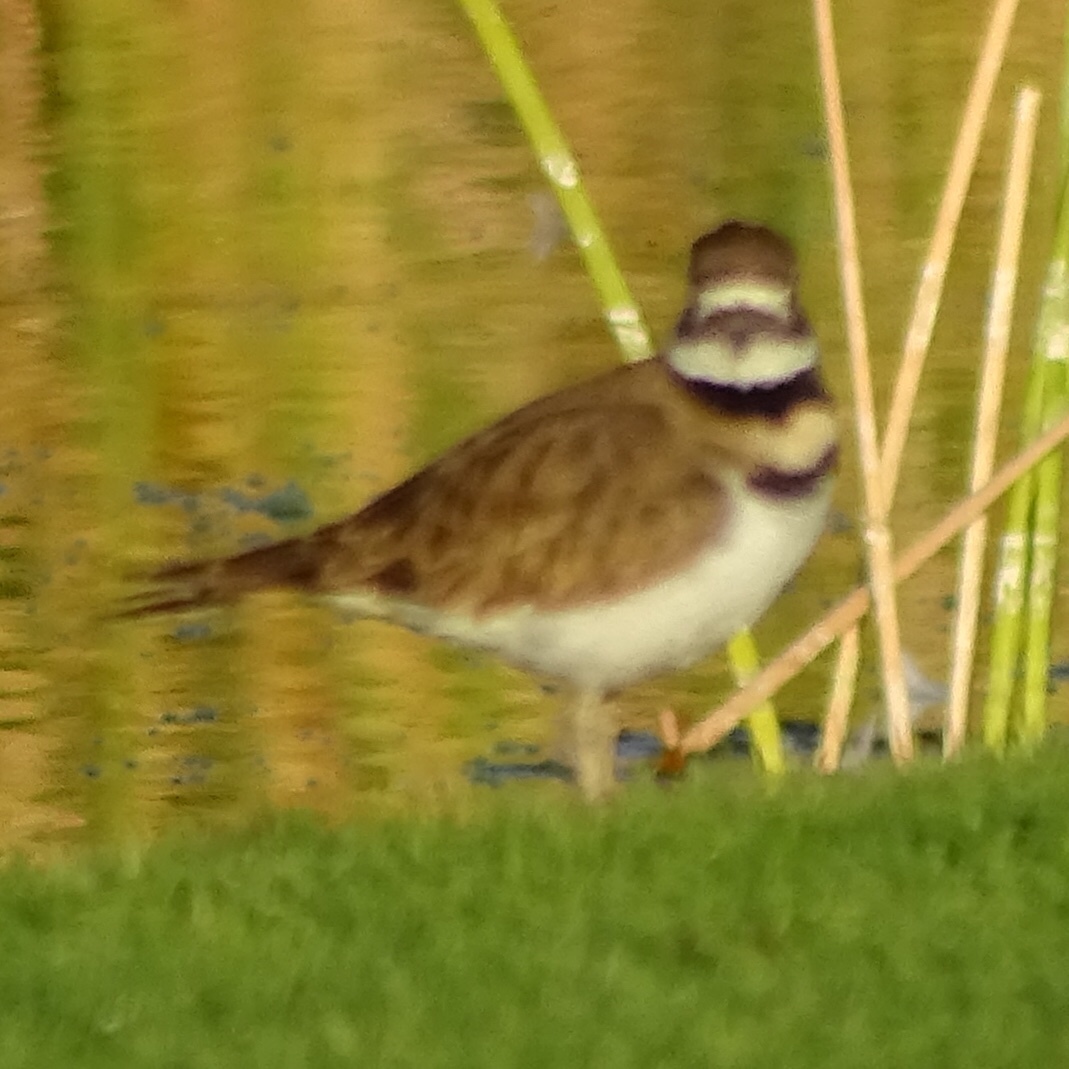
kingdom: Animalia
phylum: Chordata
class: Aves
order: Charadriiformes
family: Charadriidae
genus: Charadrius
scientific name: Charadrius vociferus
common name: Killdeer
